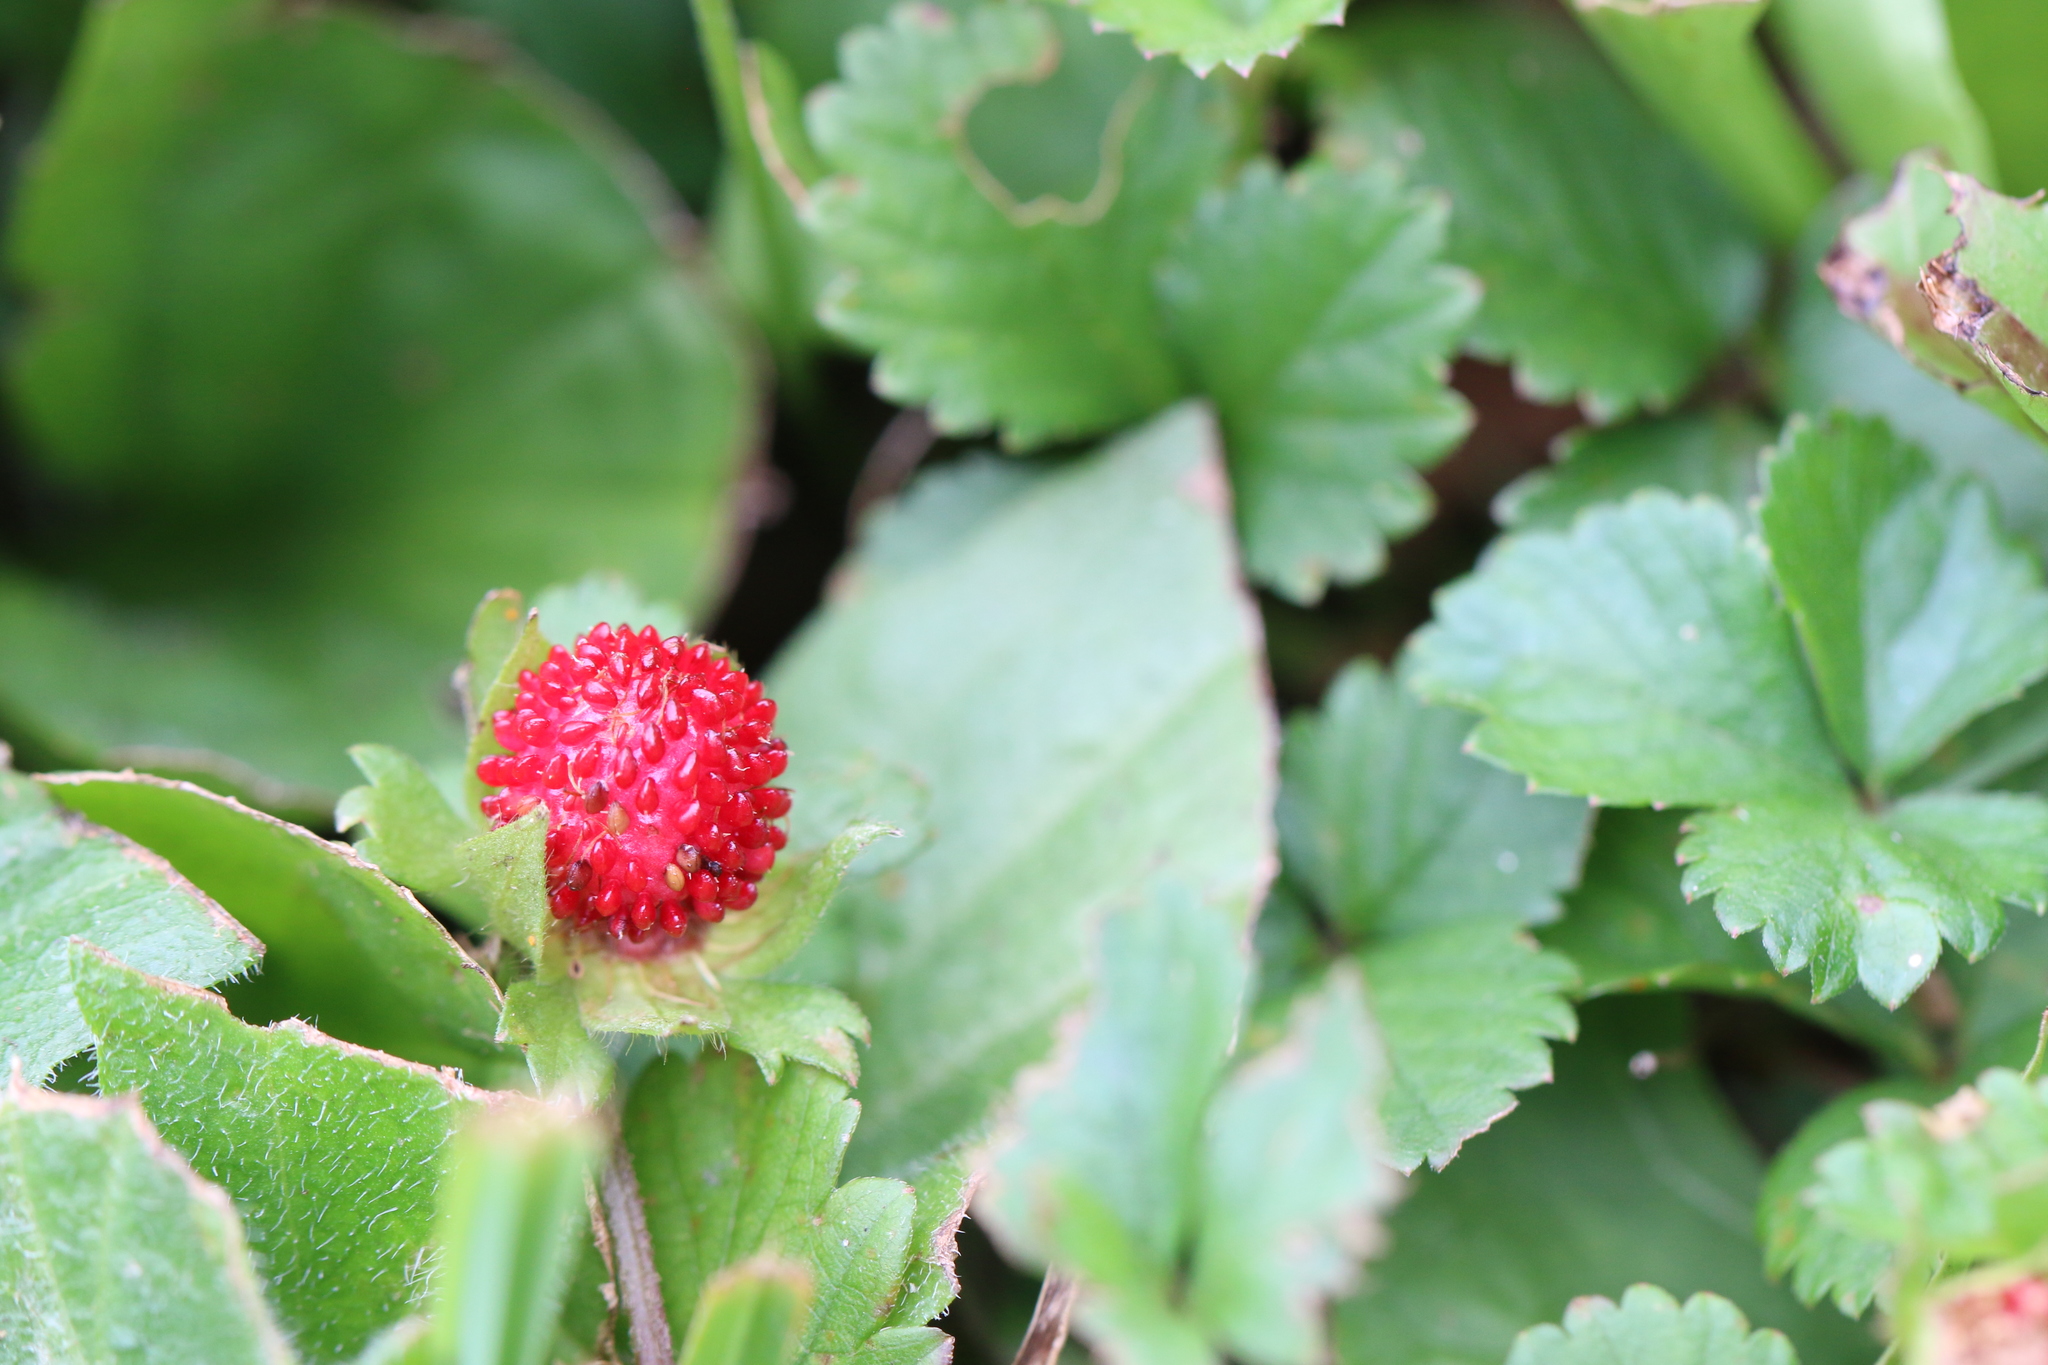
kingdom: Plantae
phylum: Tracheophyta
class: Magnoliopsida
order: Rosales
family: Rosaceae
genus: Potentilla
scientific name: Potentilla indica
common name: Yellow-flowered strawberry
